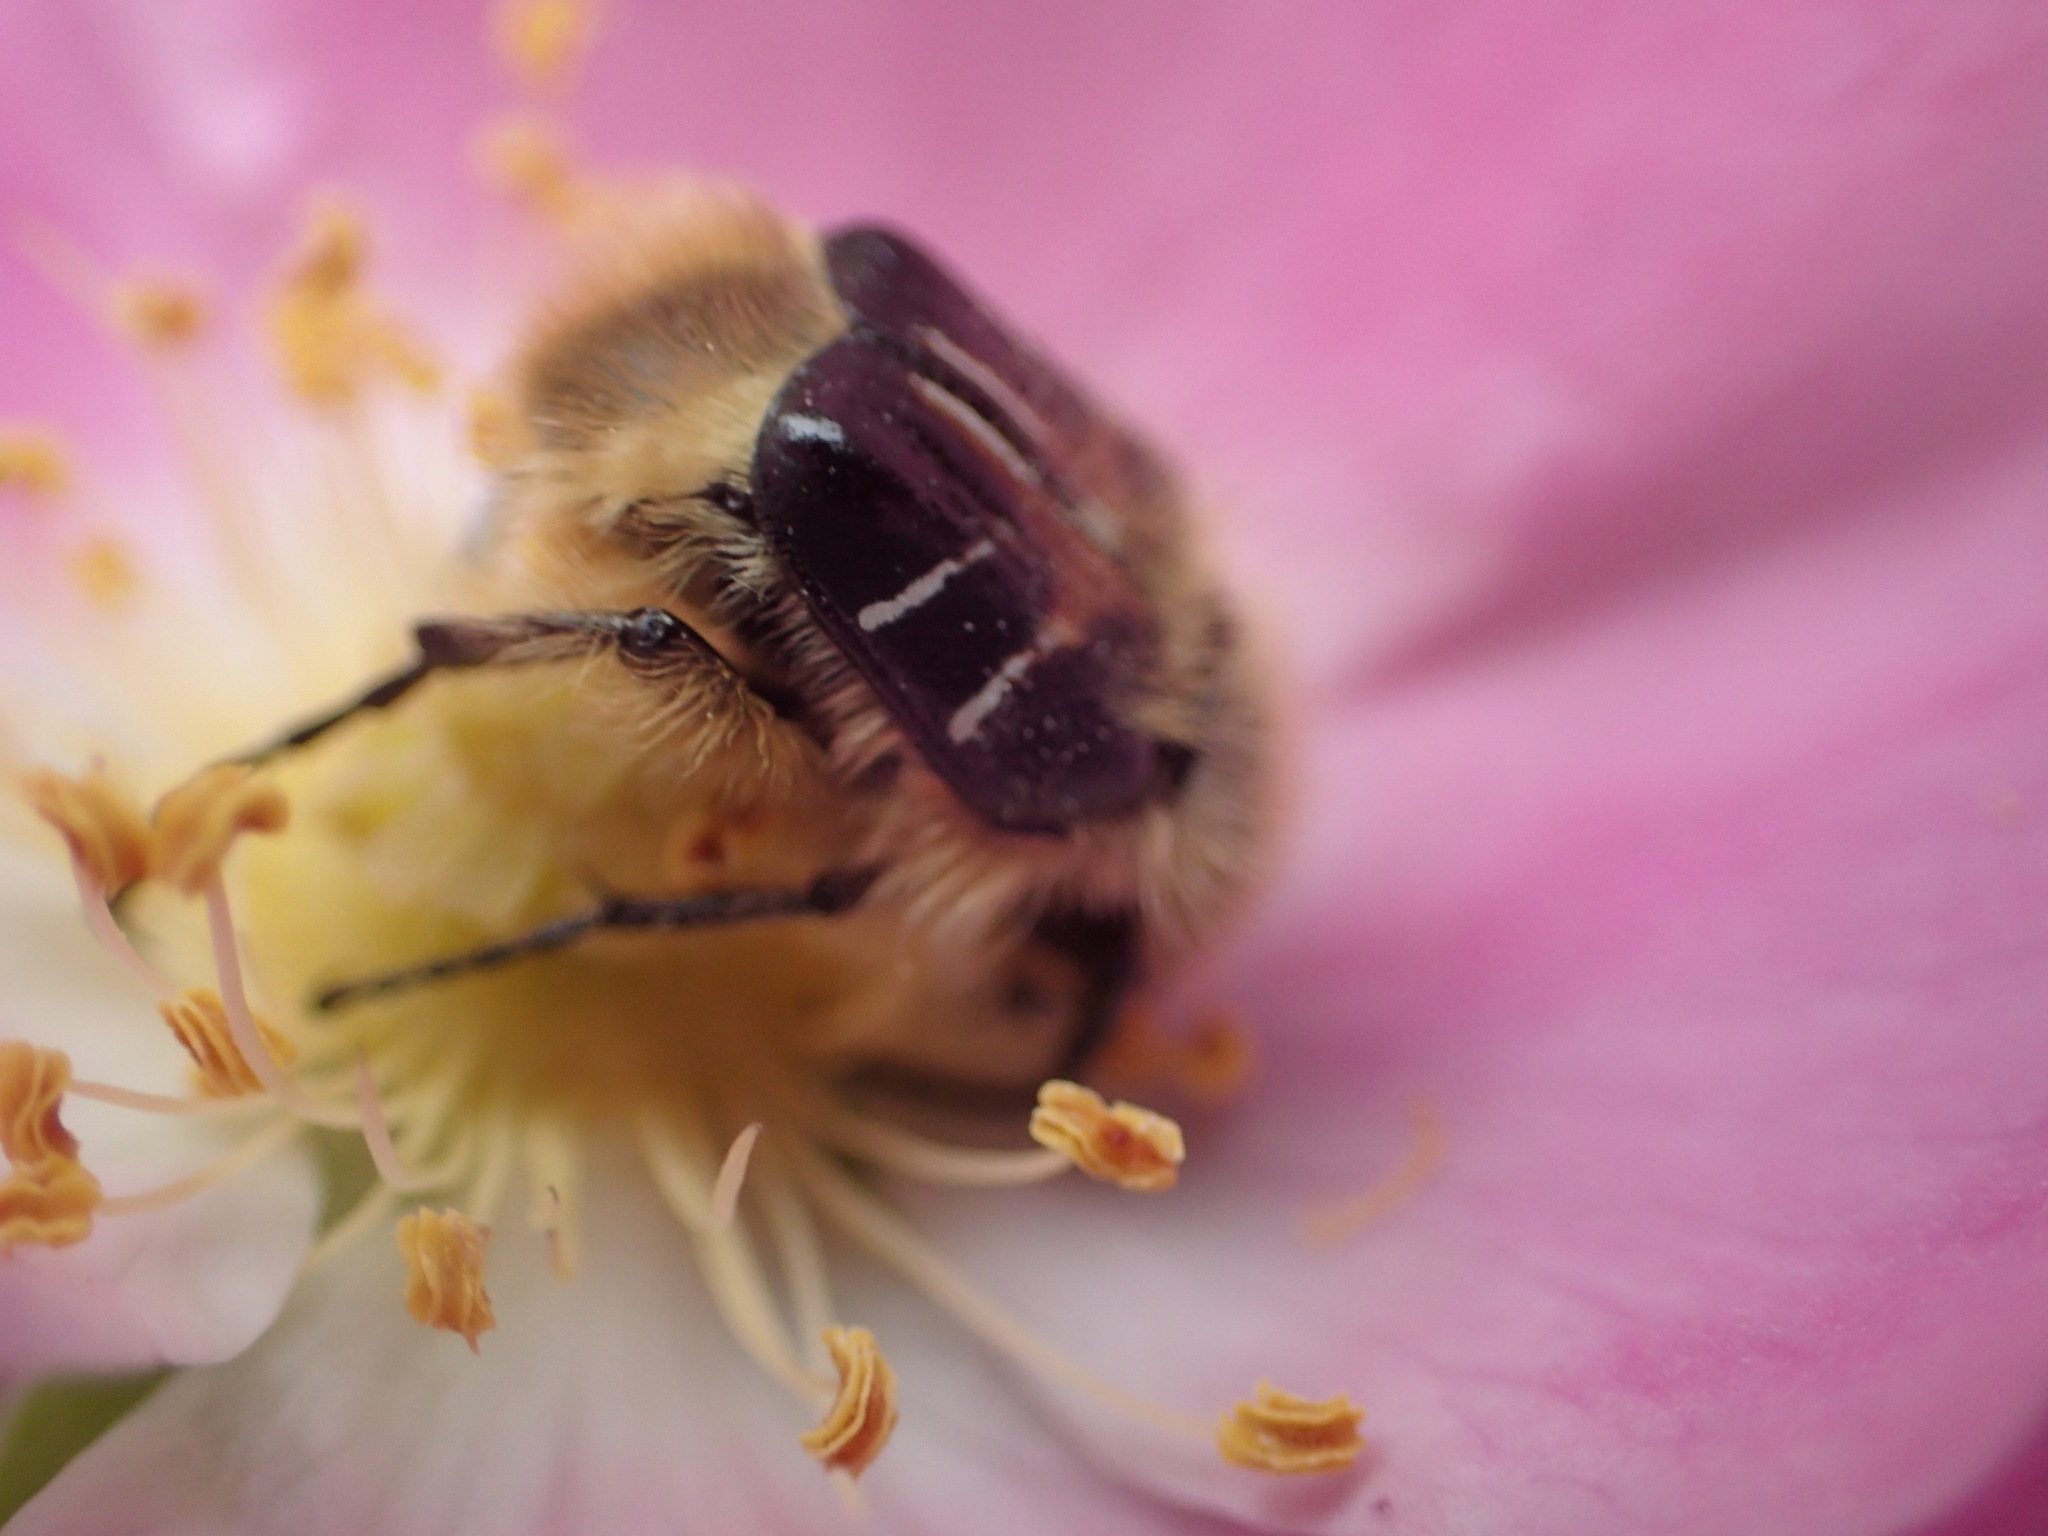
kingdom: Animalia
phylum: Arthropoda
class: Insecta
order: Coleoptera
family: Scarabaeidae
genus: Trichiotinus
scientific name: Trichiotinus assimilis
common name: Bee-mimic beetle
